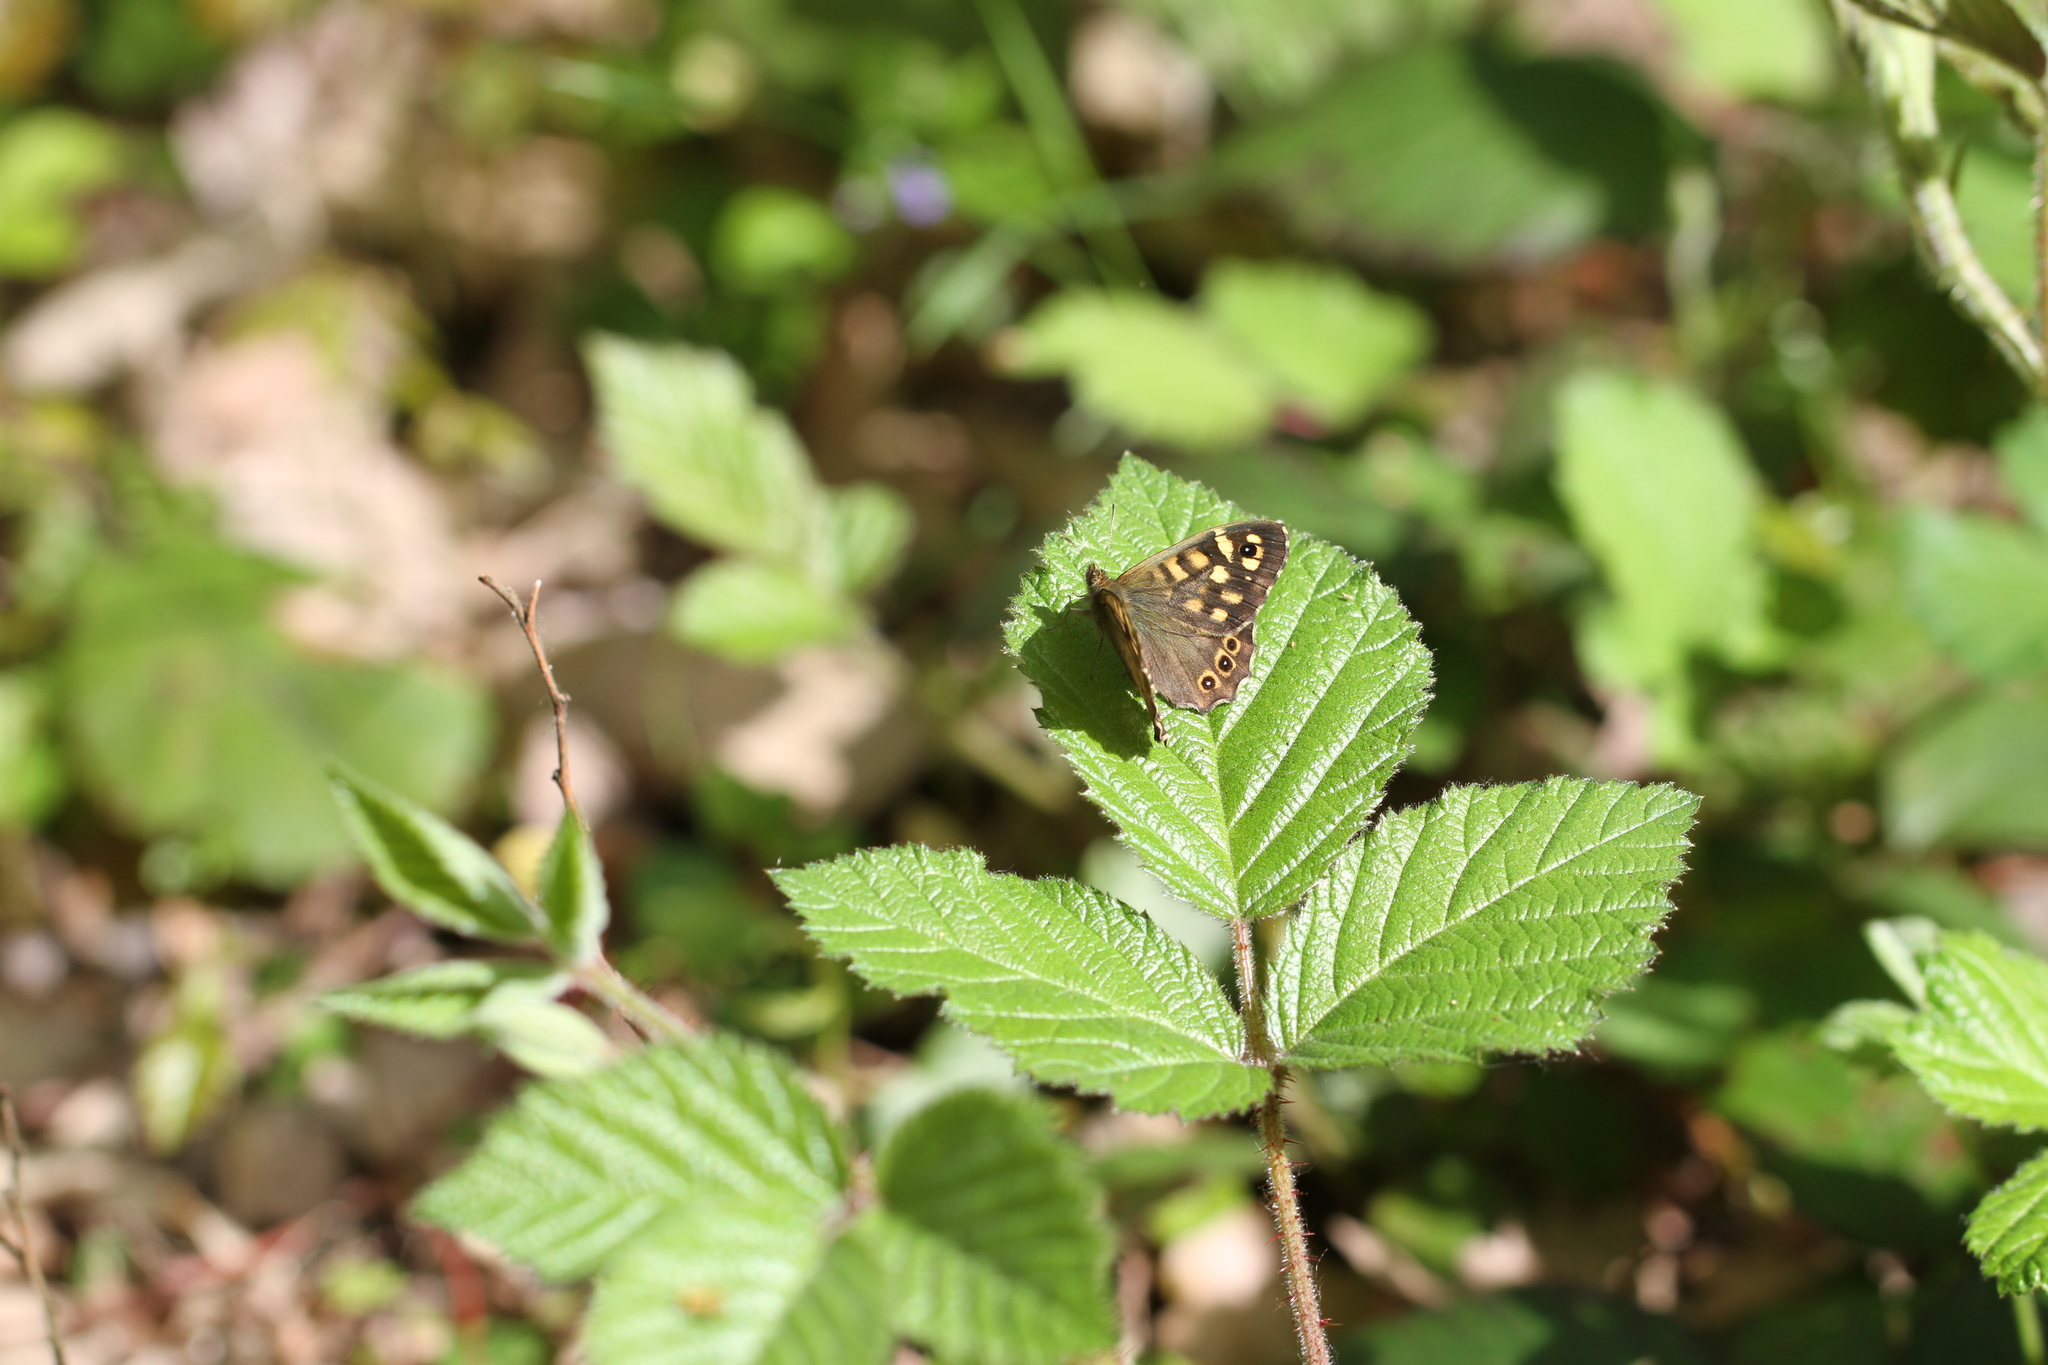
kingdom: Animalia
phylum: Arthropoda
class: Insecta
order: Lepidoptera
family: Nymphalidae
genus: Pararge
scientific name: Pararge aegeria
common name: Speckled wood
